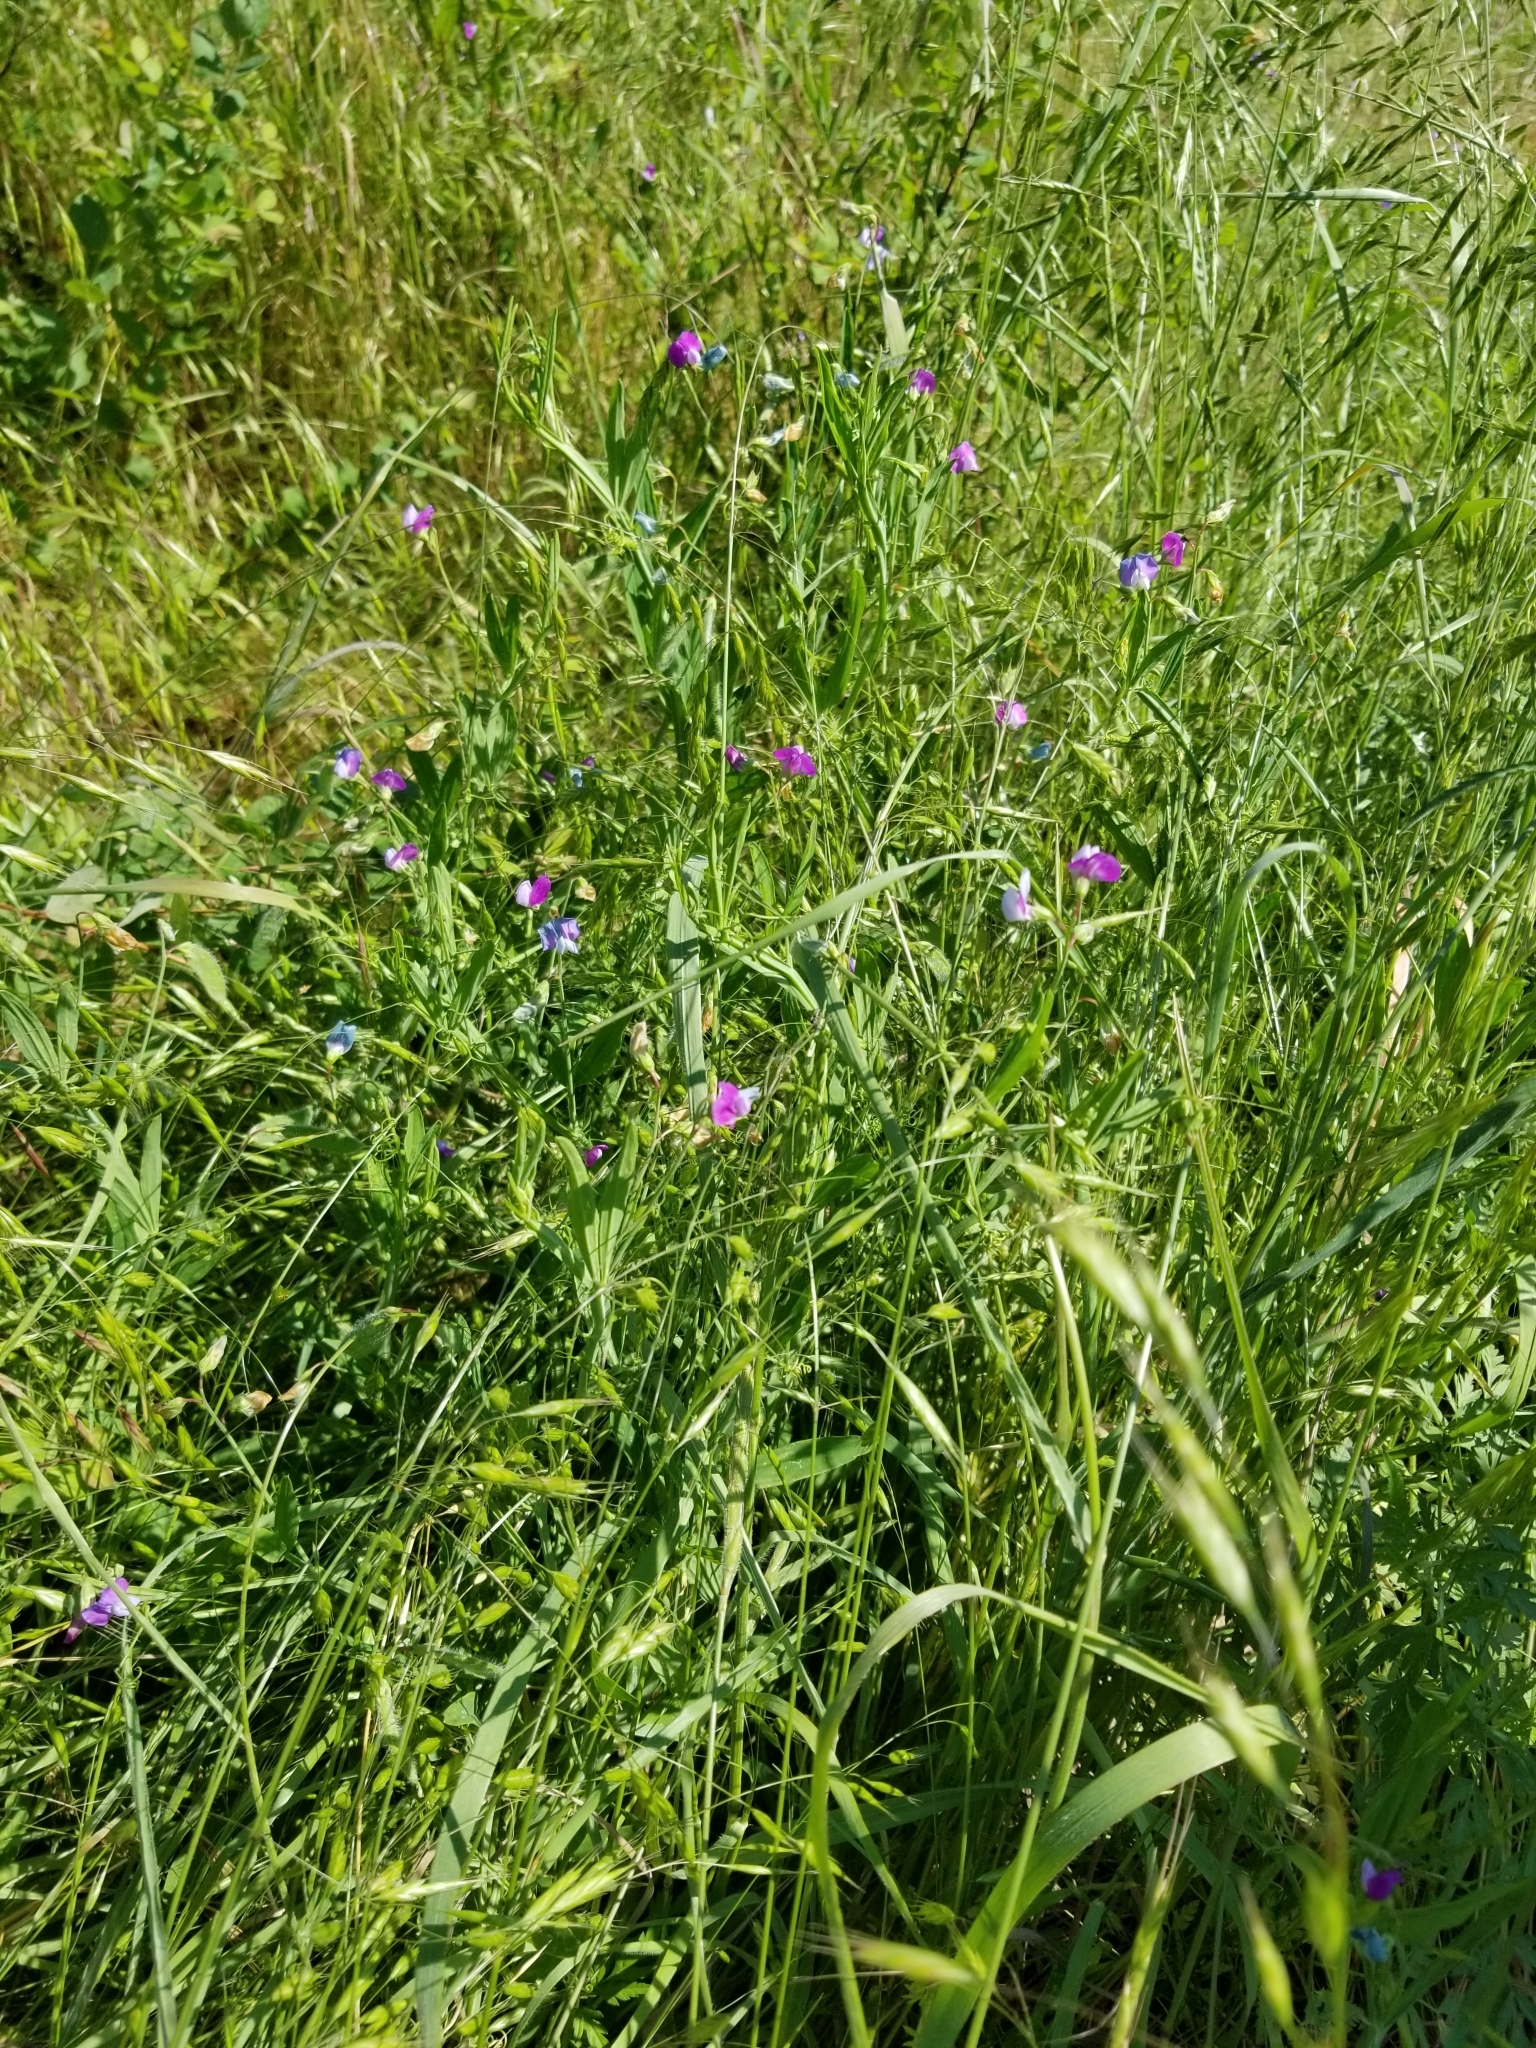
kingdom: Plantae
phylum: Tracheophyta
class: Magnoliopsida
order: Fabales
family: Fabaceae
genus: Lathyrus
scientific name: Lathyrus hirsutus
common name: Hairy vetchling
